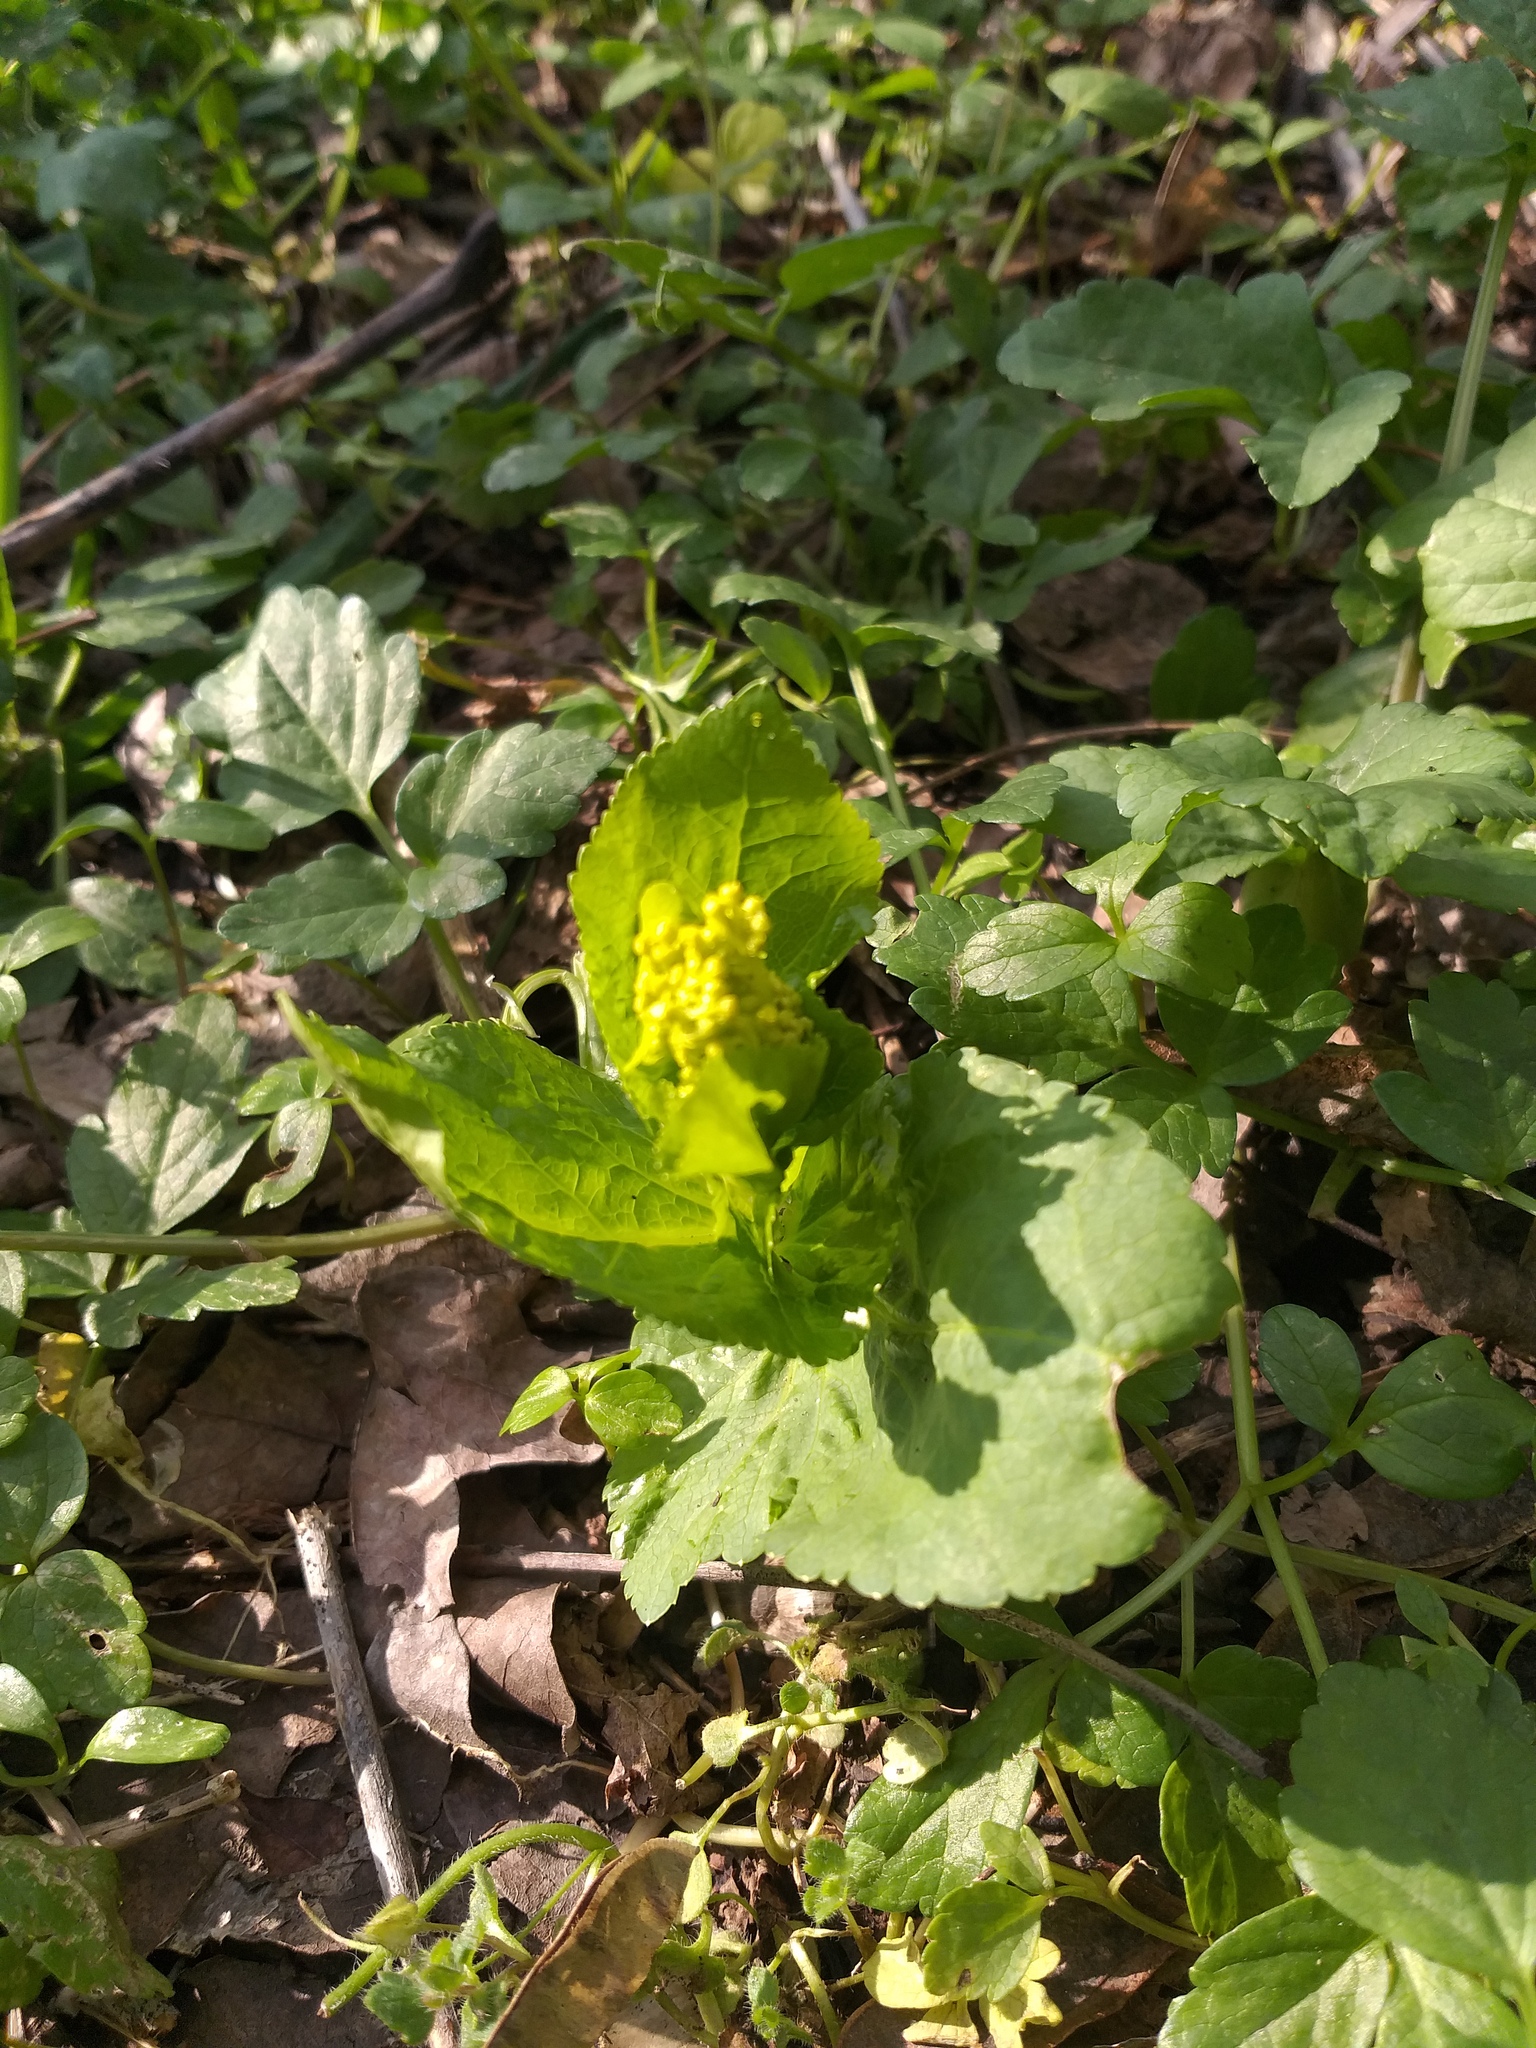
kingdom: Plantae
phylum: Tracheophyta
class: Magnoliopsida
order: Apiales
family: Apiaceae
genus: Smyrnium
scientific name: Smyrnium perfoliatum
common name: Perfoliate alexanders
